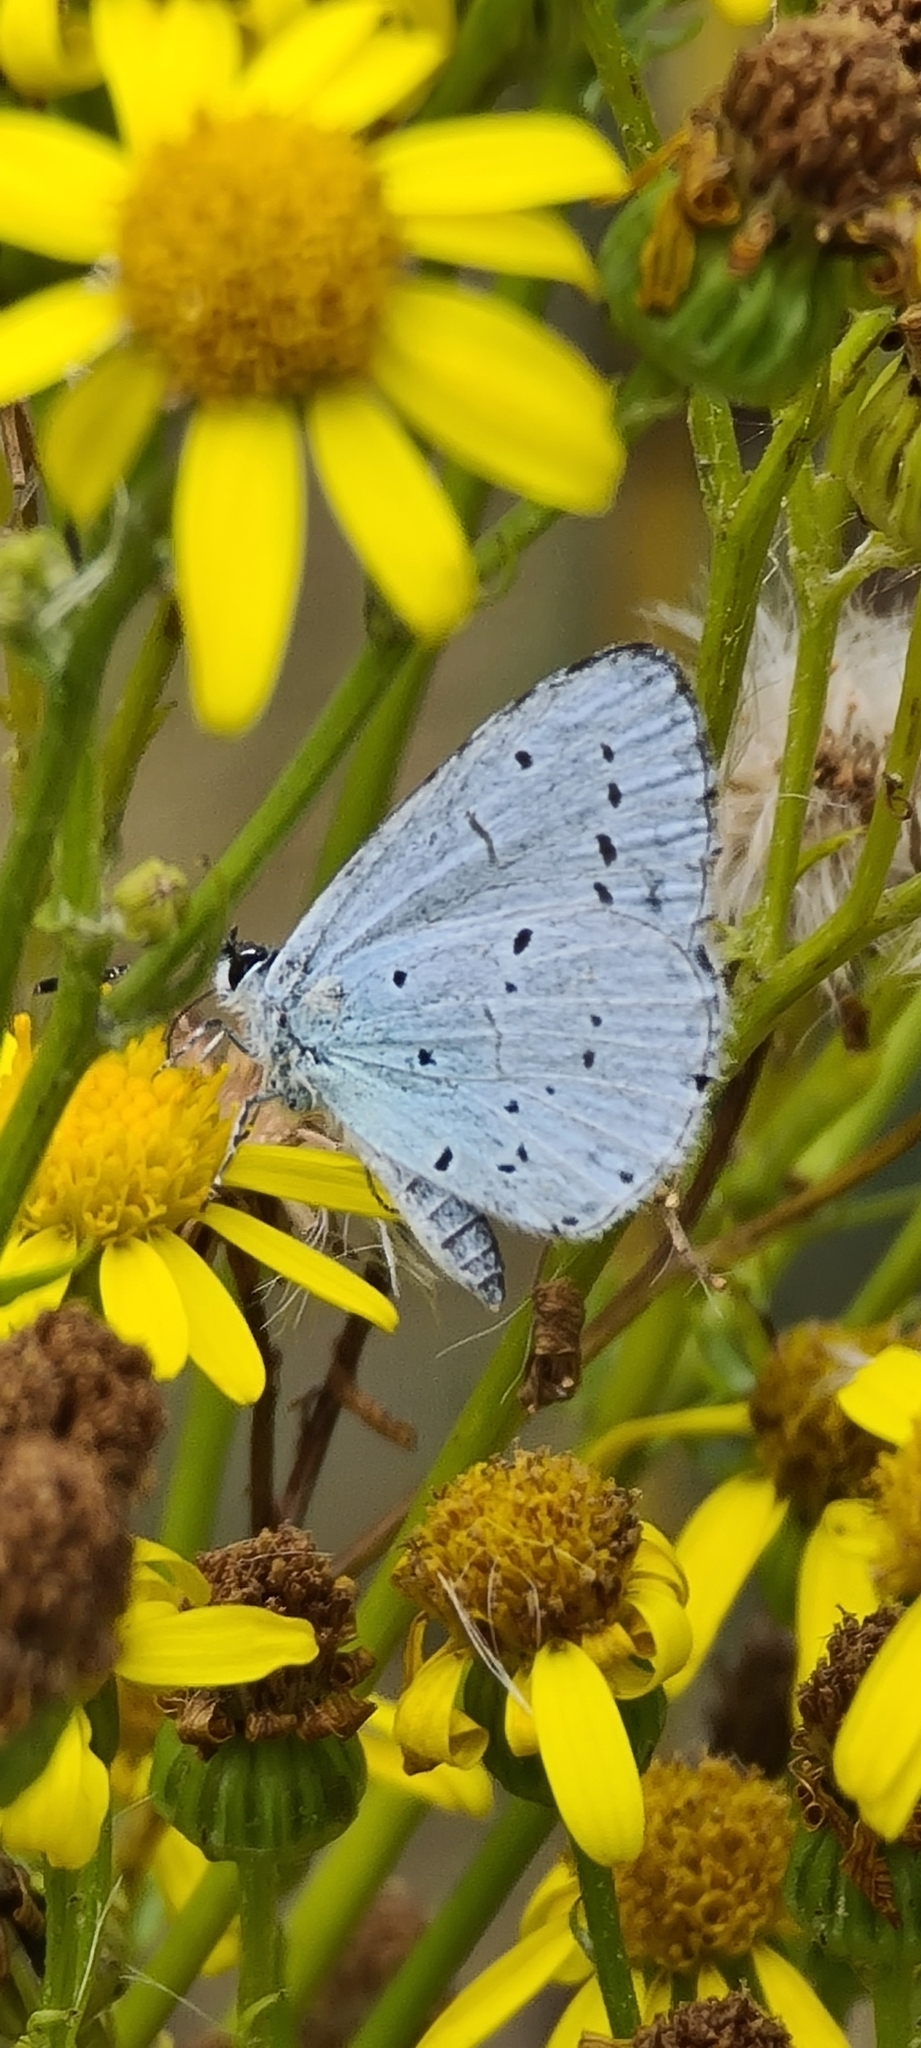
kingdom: Animalia
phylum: Arthropoda
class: Insecta
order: Lepidoptera
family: Lycaenidae
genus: Celastrina
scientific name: Celastrina argiolus
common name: Holly blue
